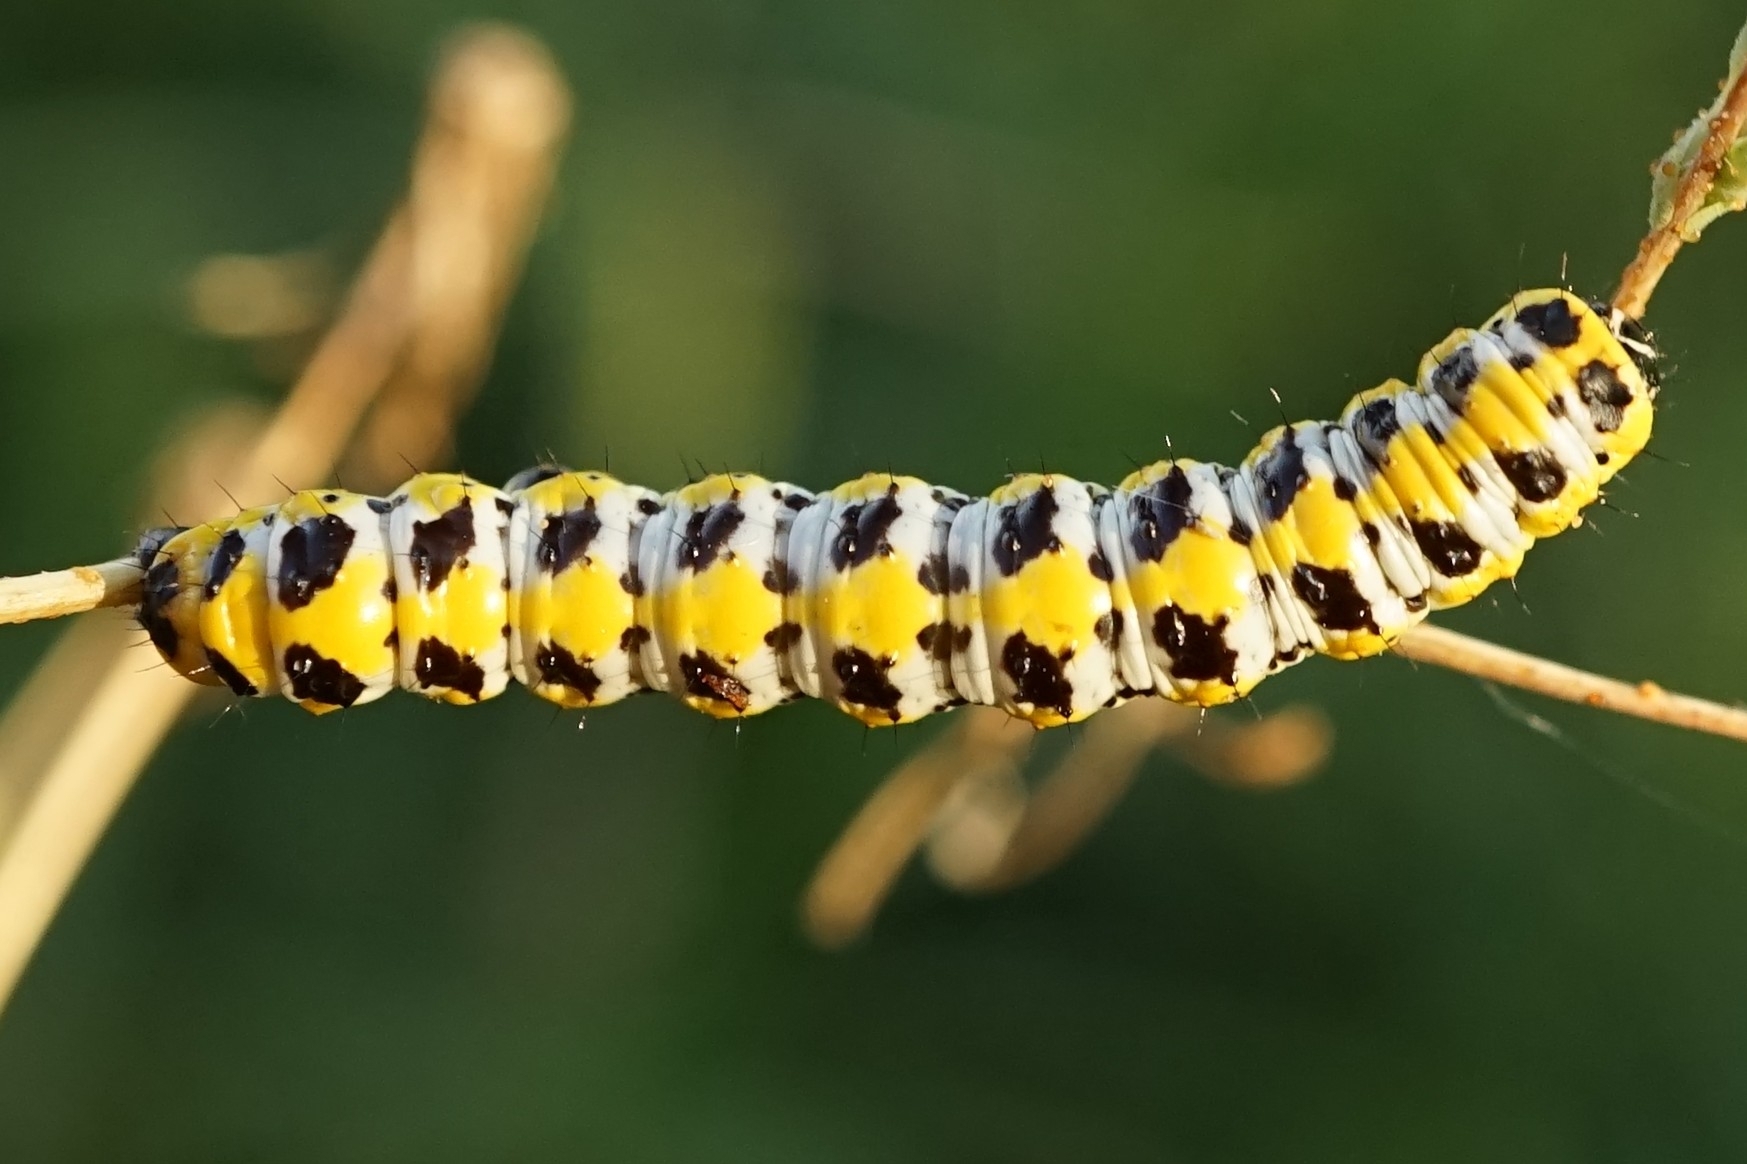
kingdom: Animalia
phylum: Arthropoda
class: Insecta
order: Lepidoptera
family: Noctuidae
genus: Cucullia
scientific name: Cucullia pustulata
